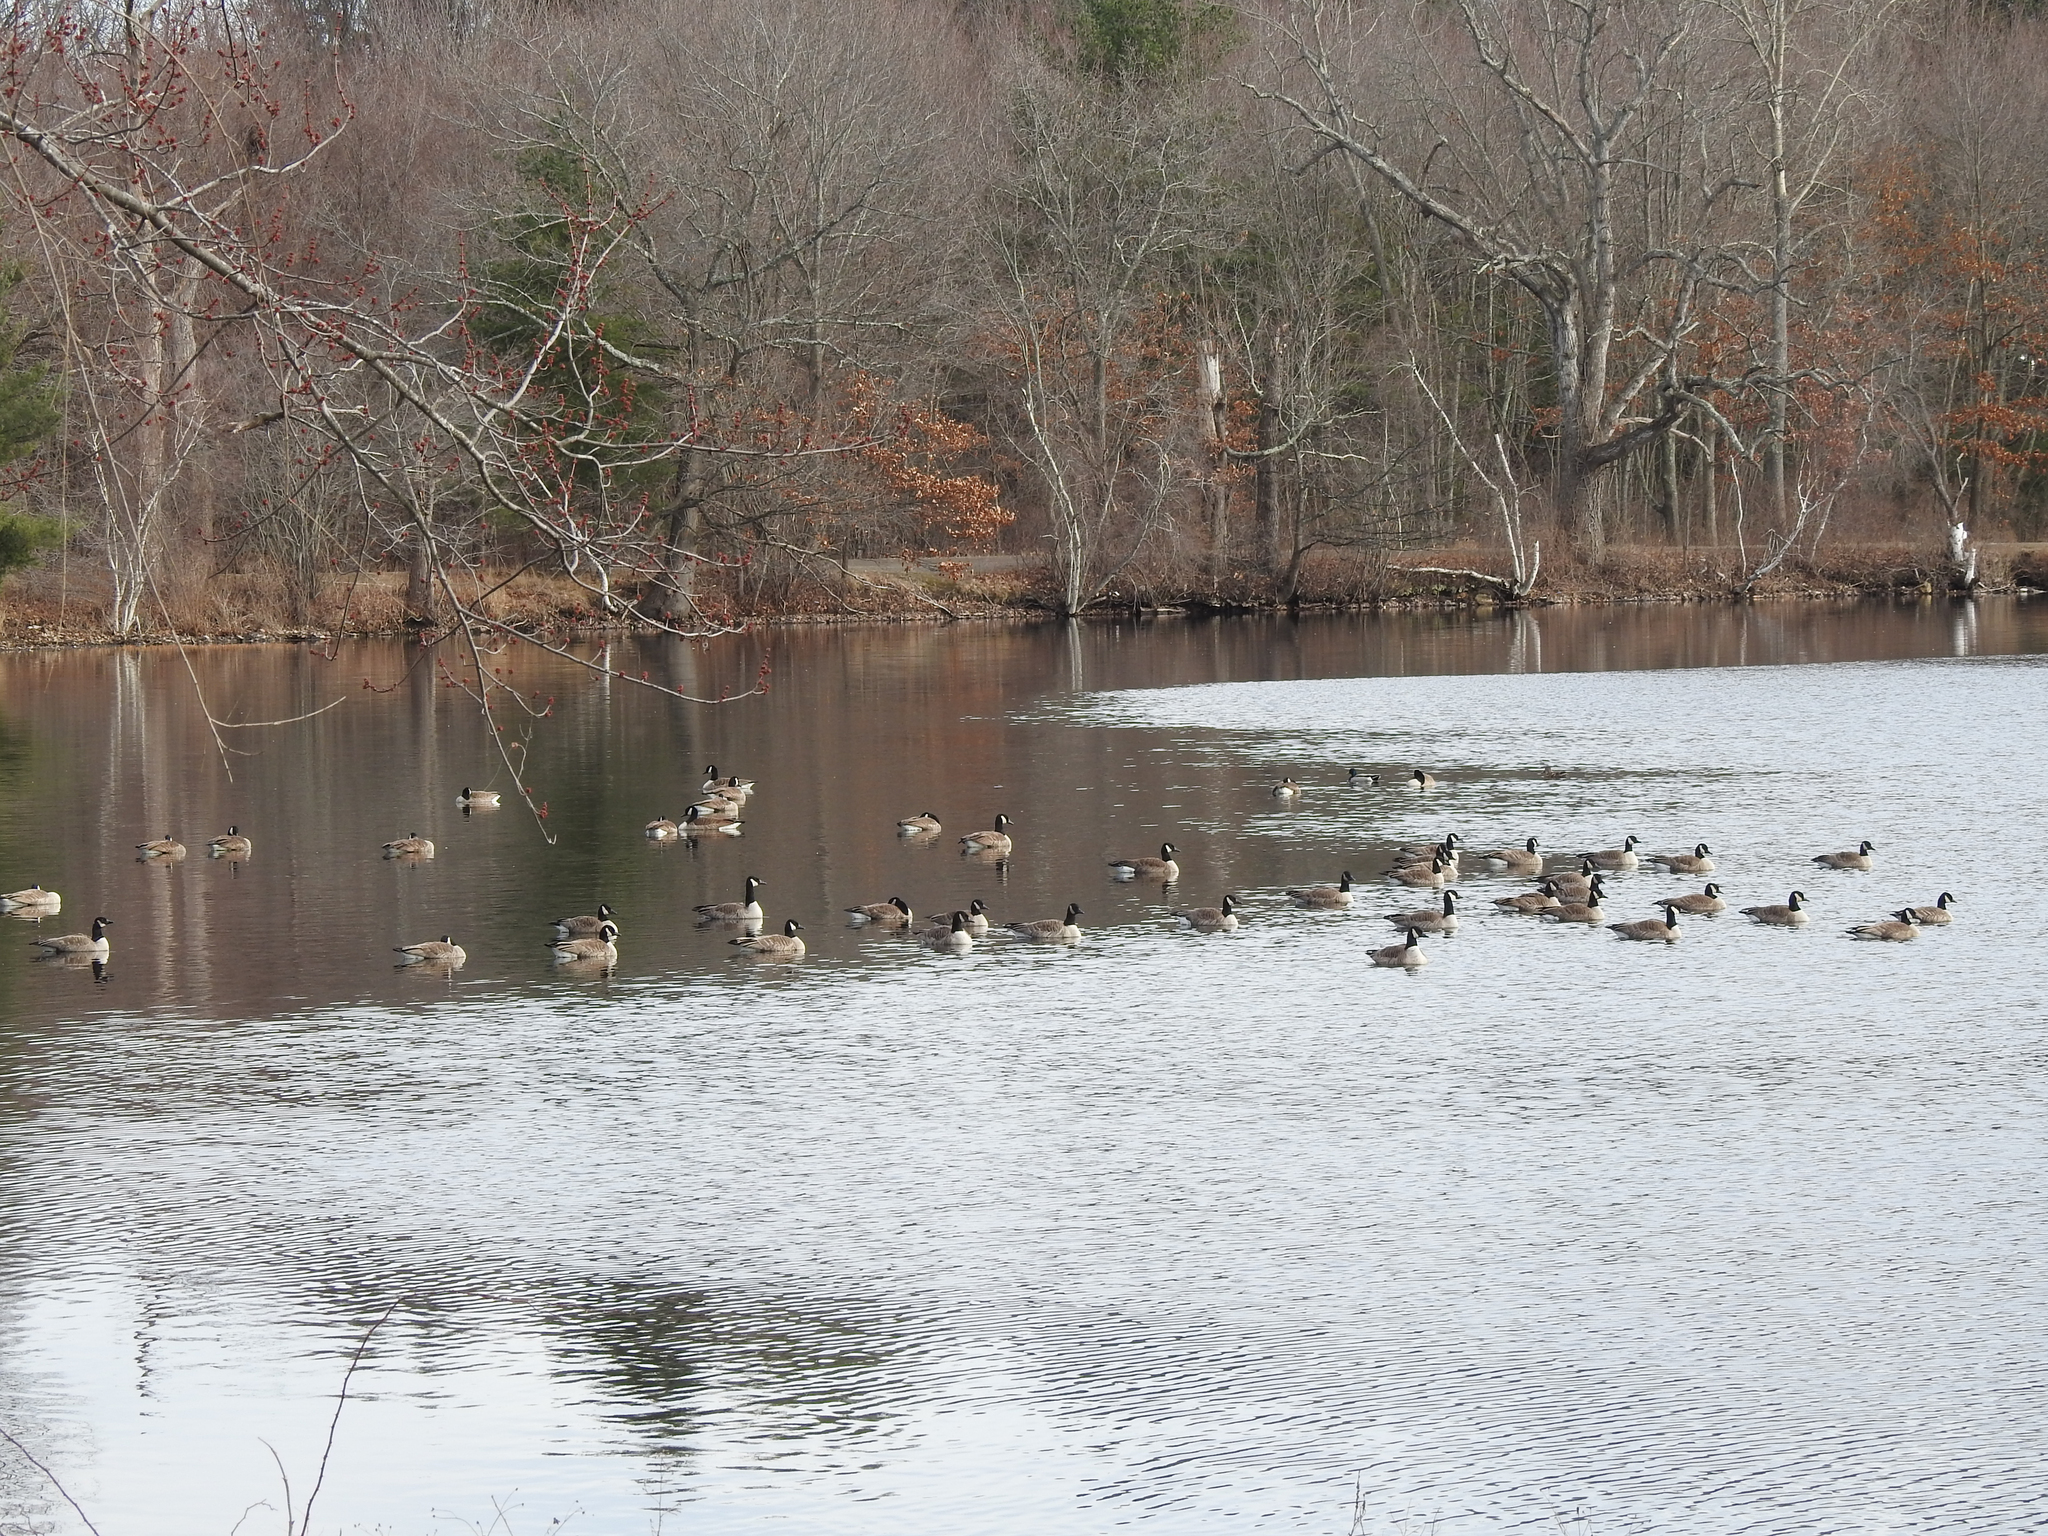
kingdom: Animalia
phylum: Chordata
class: Aves
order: Anseriformes
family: Anatidae
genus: Branta
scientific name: Branta canadensis
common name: Canada goose
